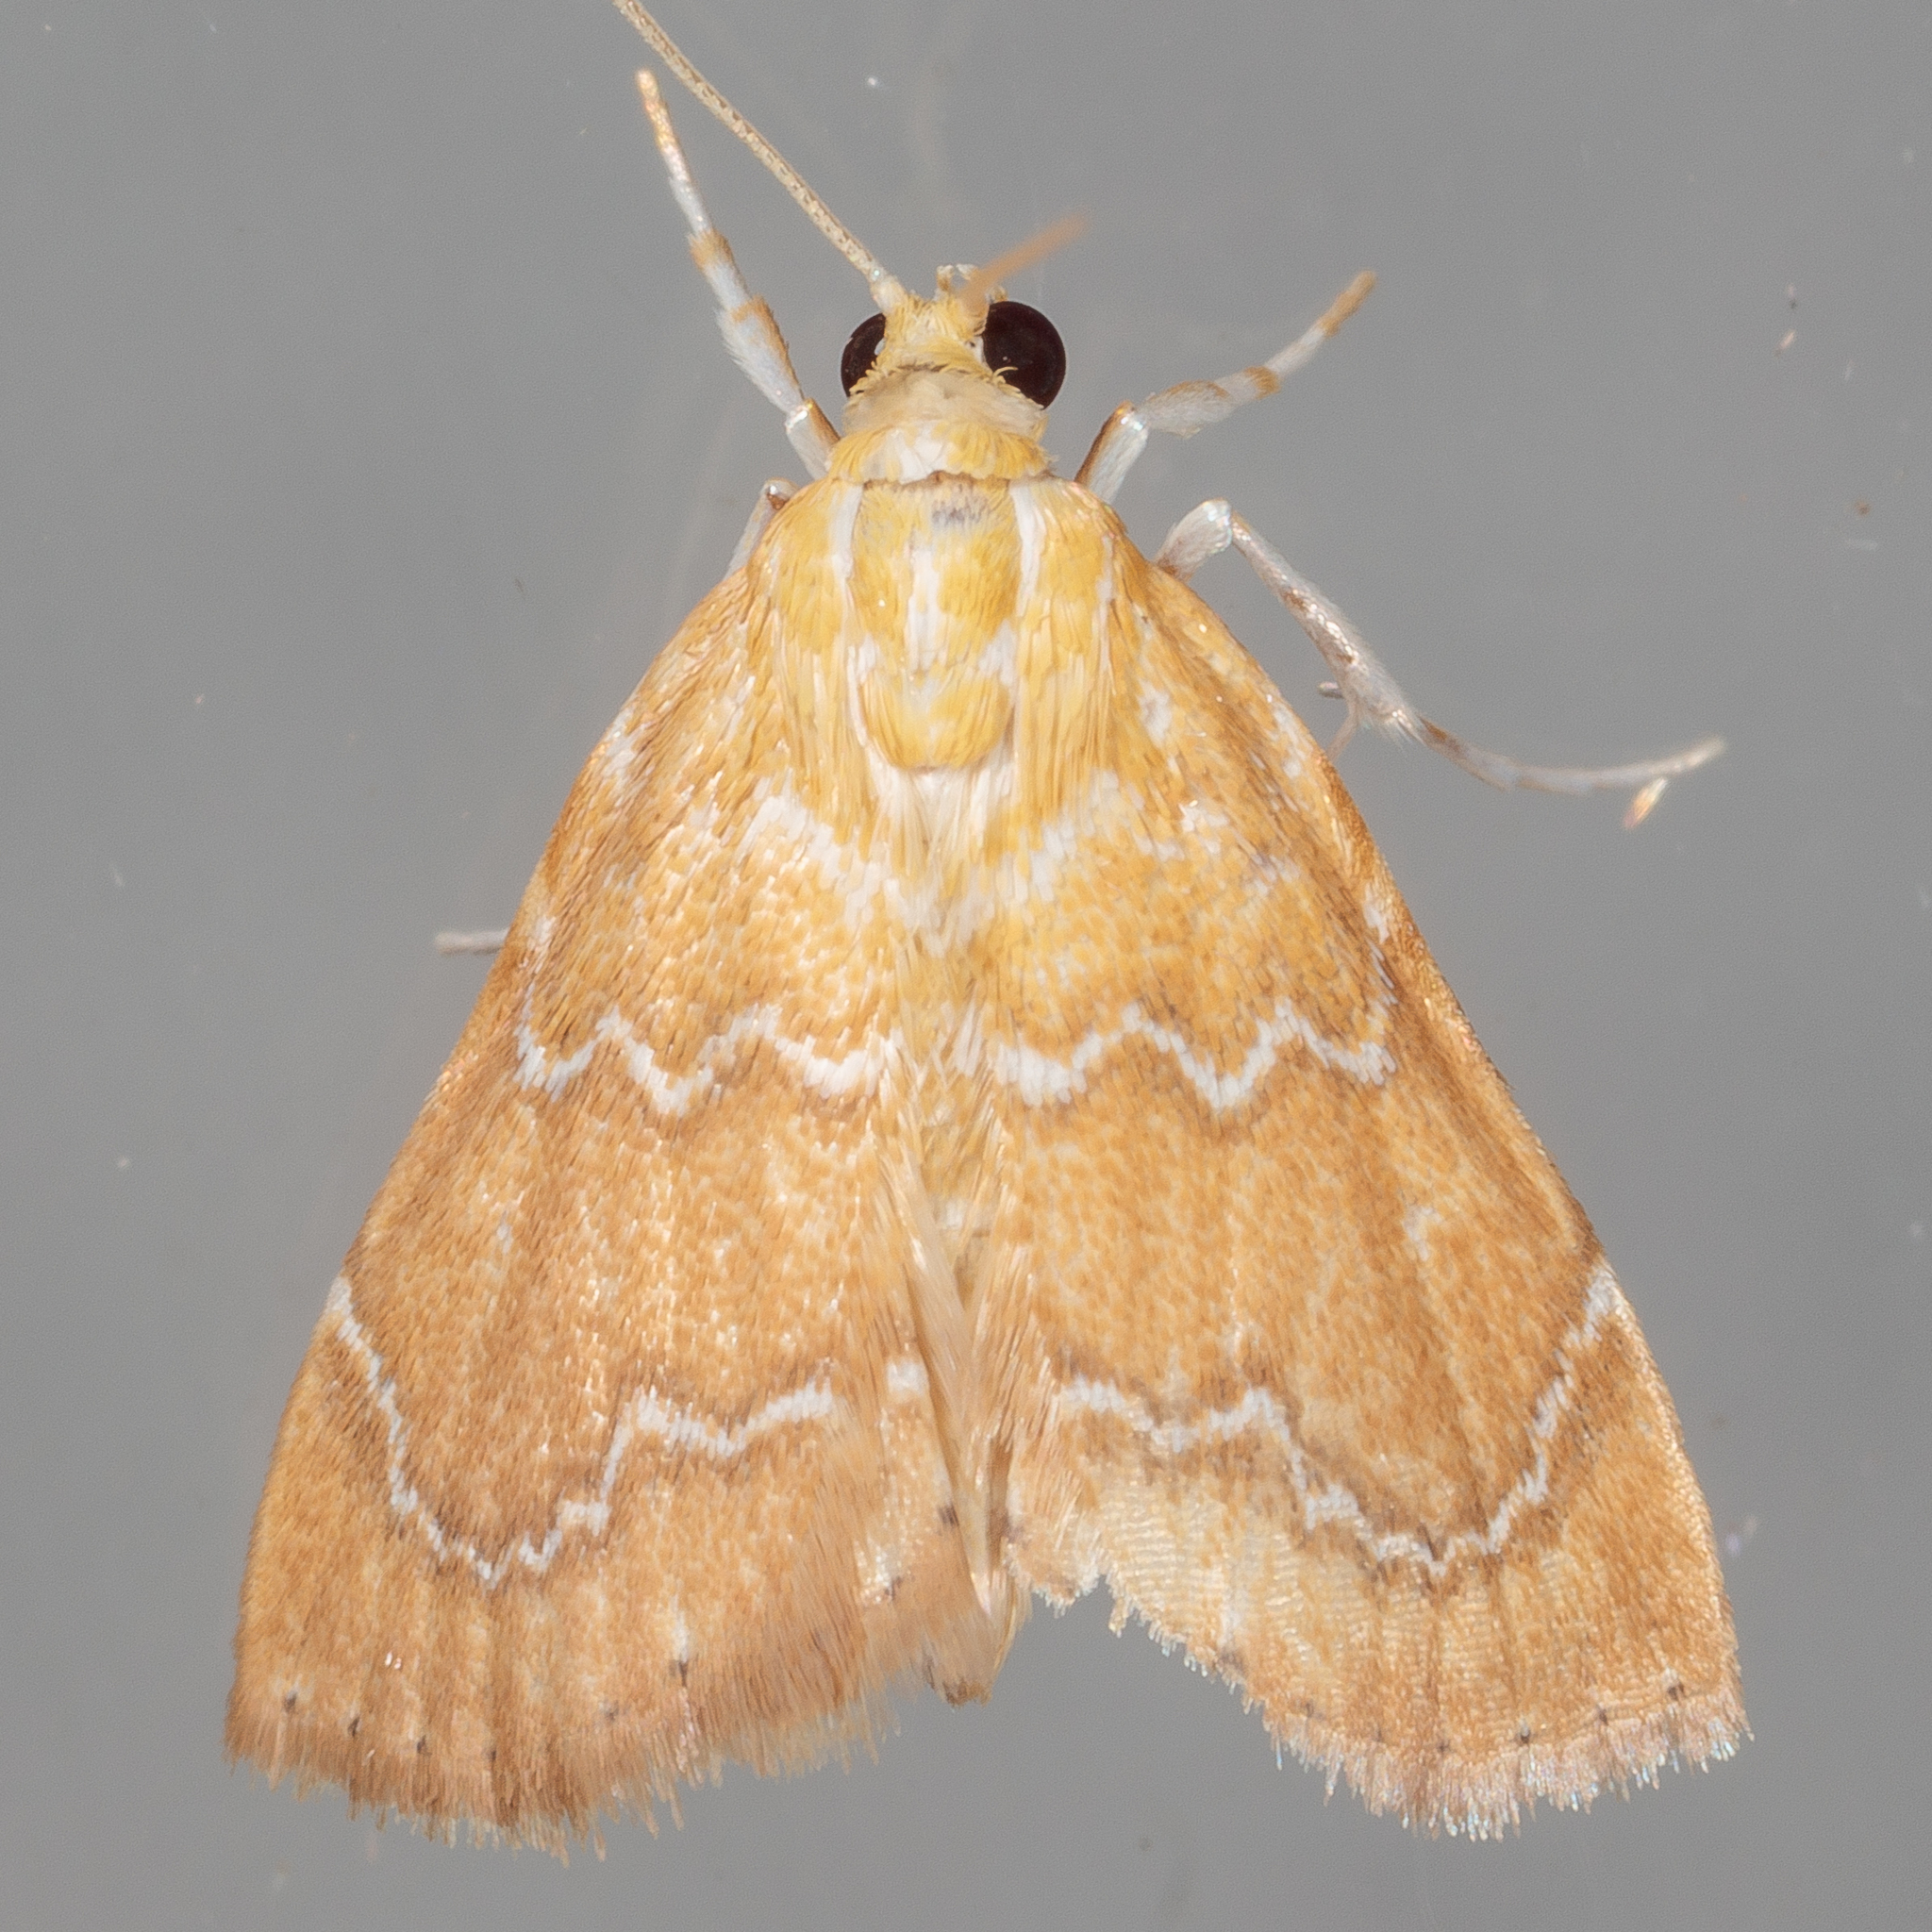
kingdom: Animalia
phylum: Arthropoda
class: Insecta
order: Lepidoptera
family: Crambidae
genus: Glaphyria
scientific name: Glaphyria sesquistrialis
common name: White-roped glaphyria
